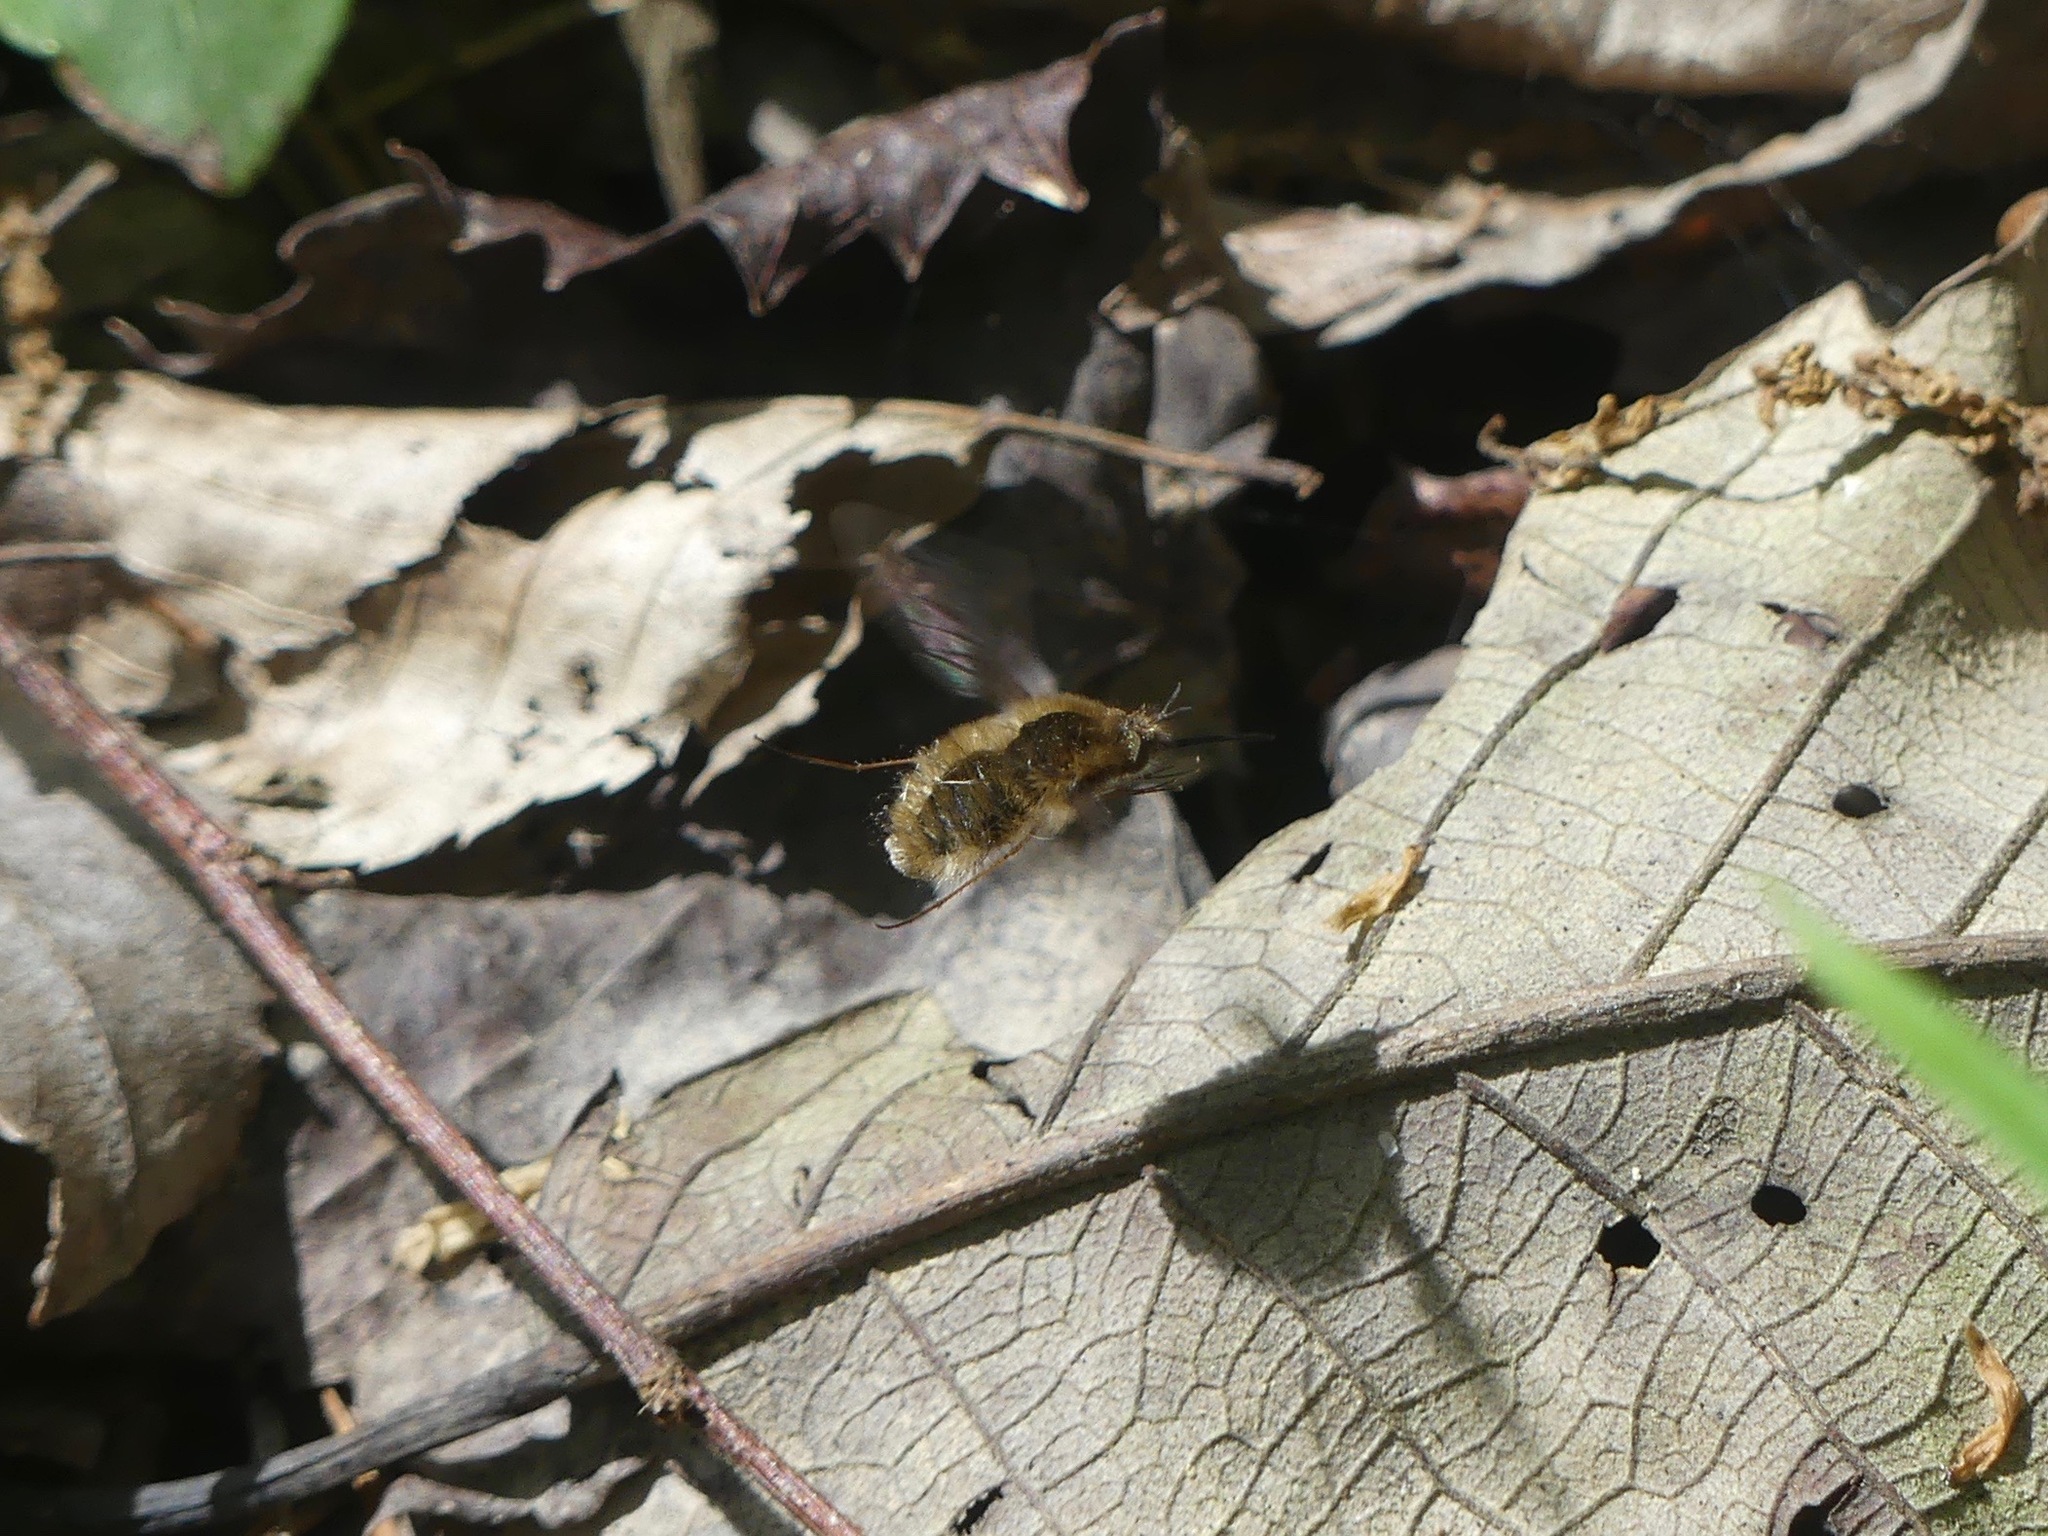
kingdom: Animalia
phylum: Arthropoda
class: Insecta
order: Diptera
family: Bombyliidae
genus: Bombylius
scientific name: Bombylius major
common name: Bee fly
